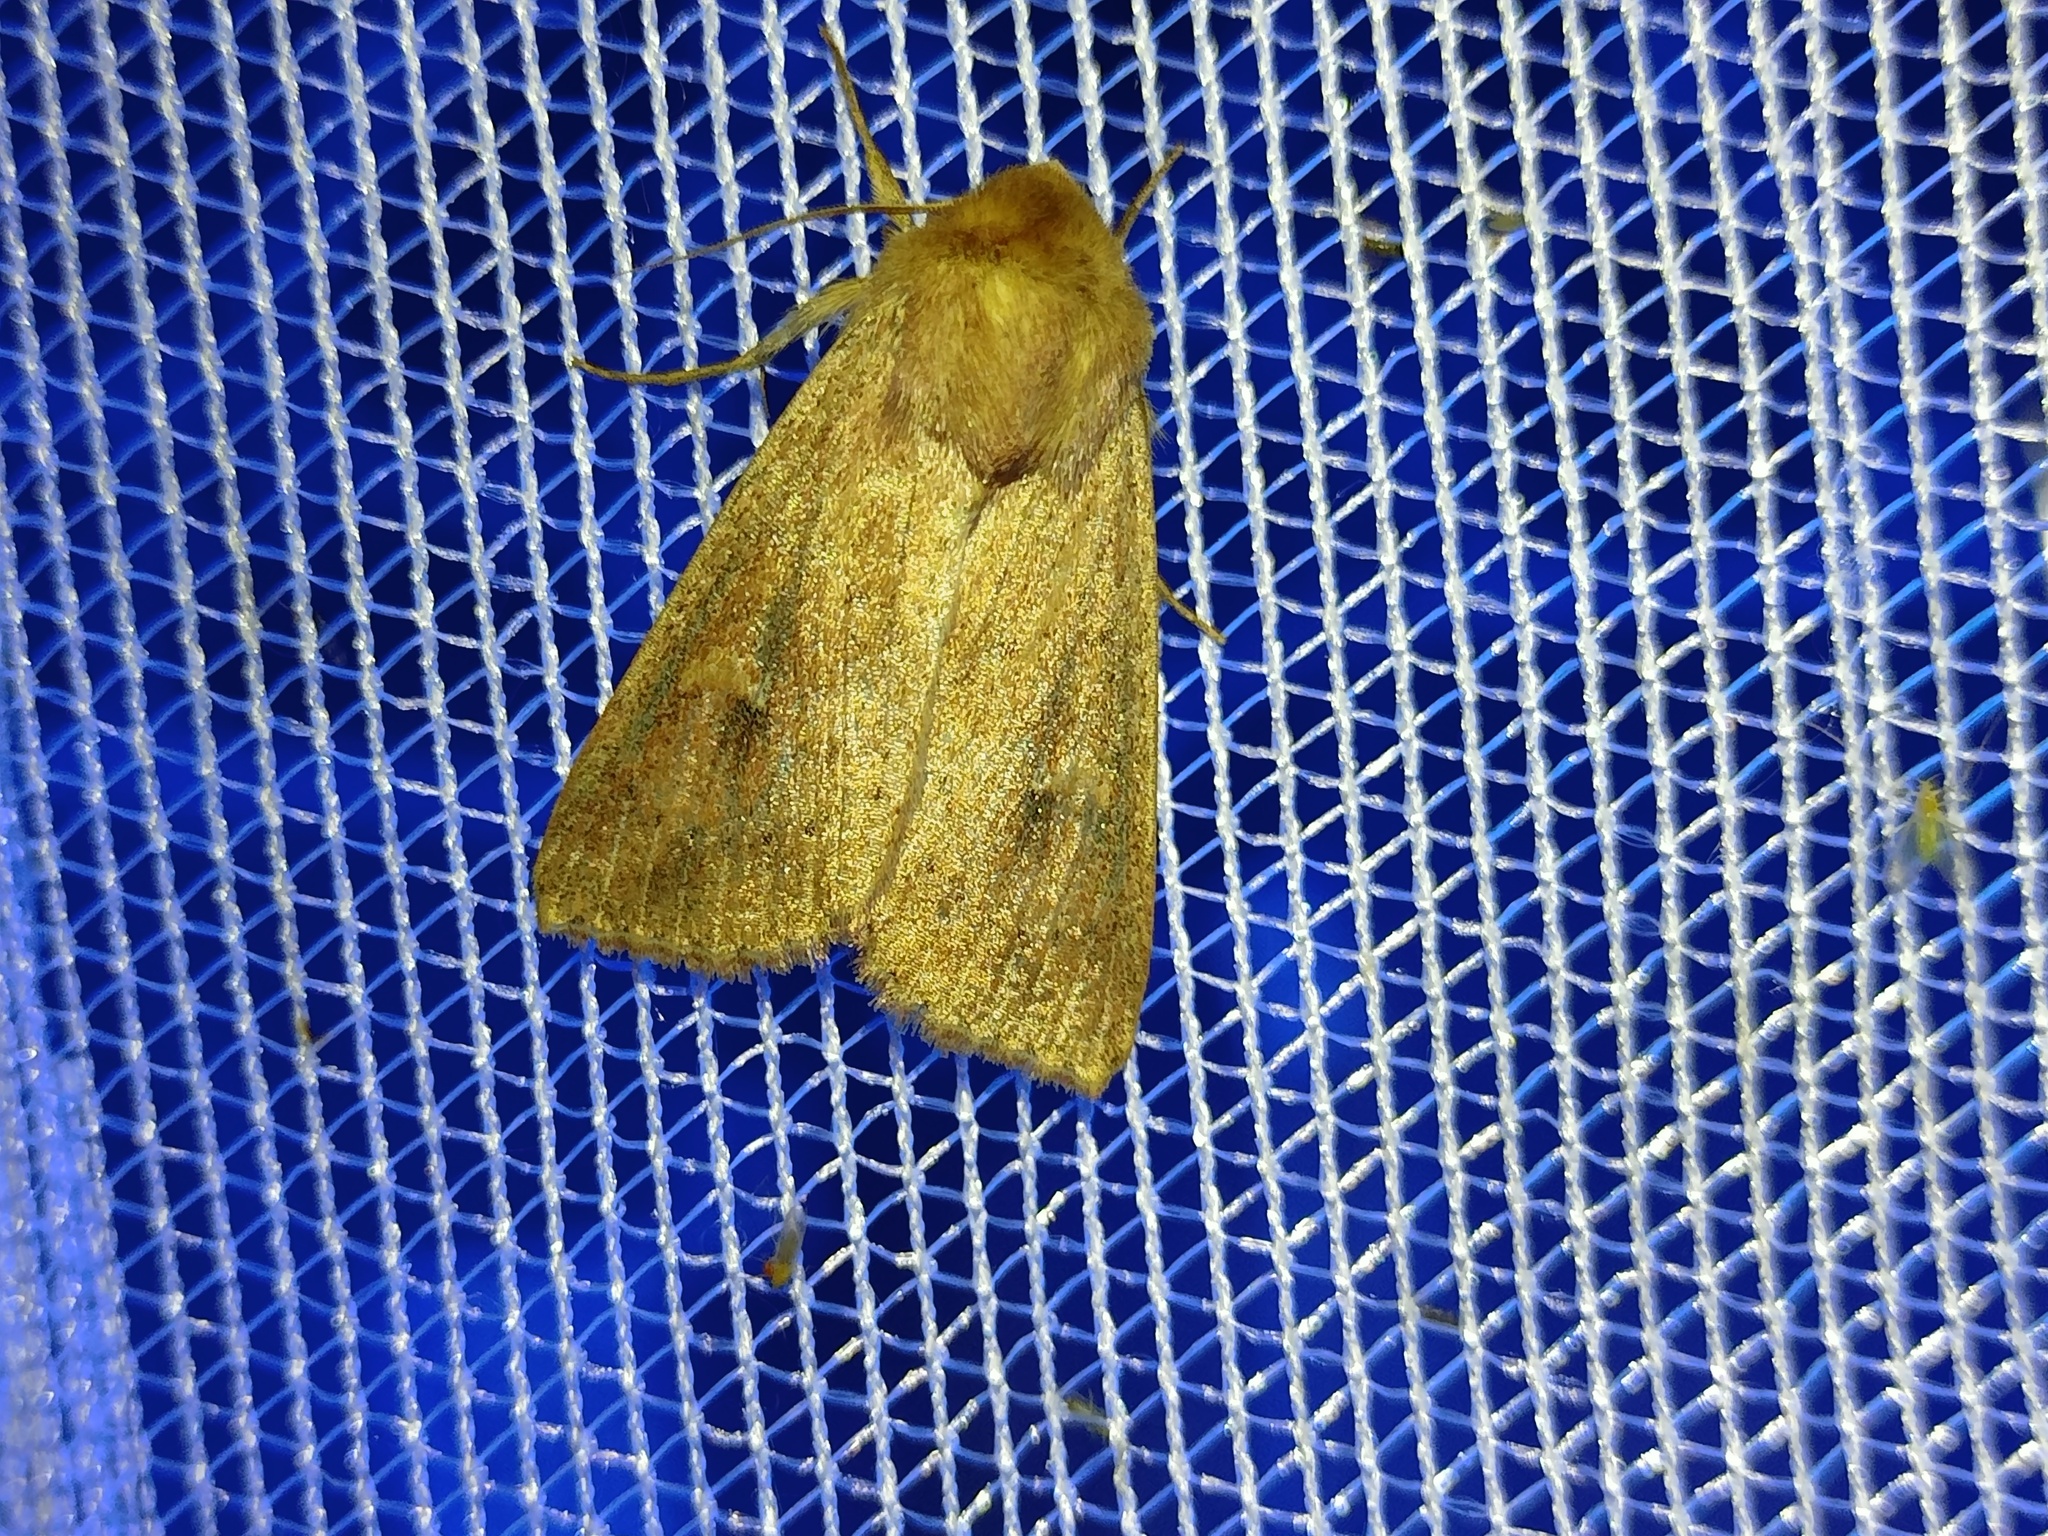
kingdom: Animalia
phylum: Arthropoda
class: Insecta
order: Lepidoptera
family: Noctuidae
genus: Mythimna
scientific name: Mythimna ferrago
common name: Clay
